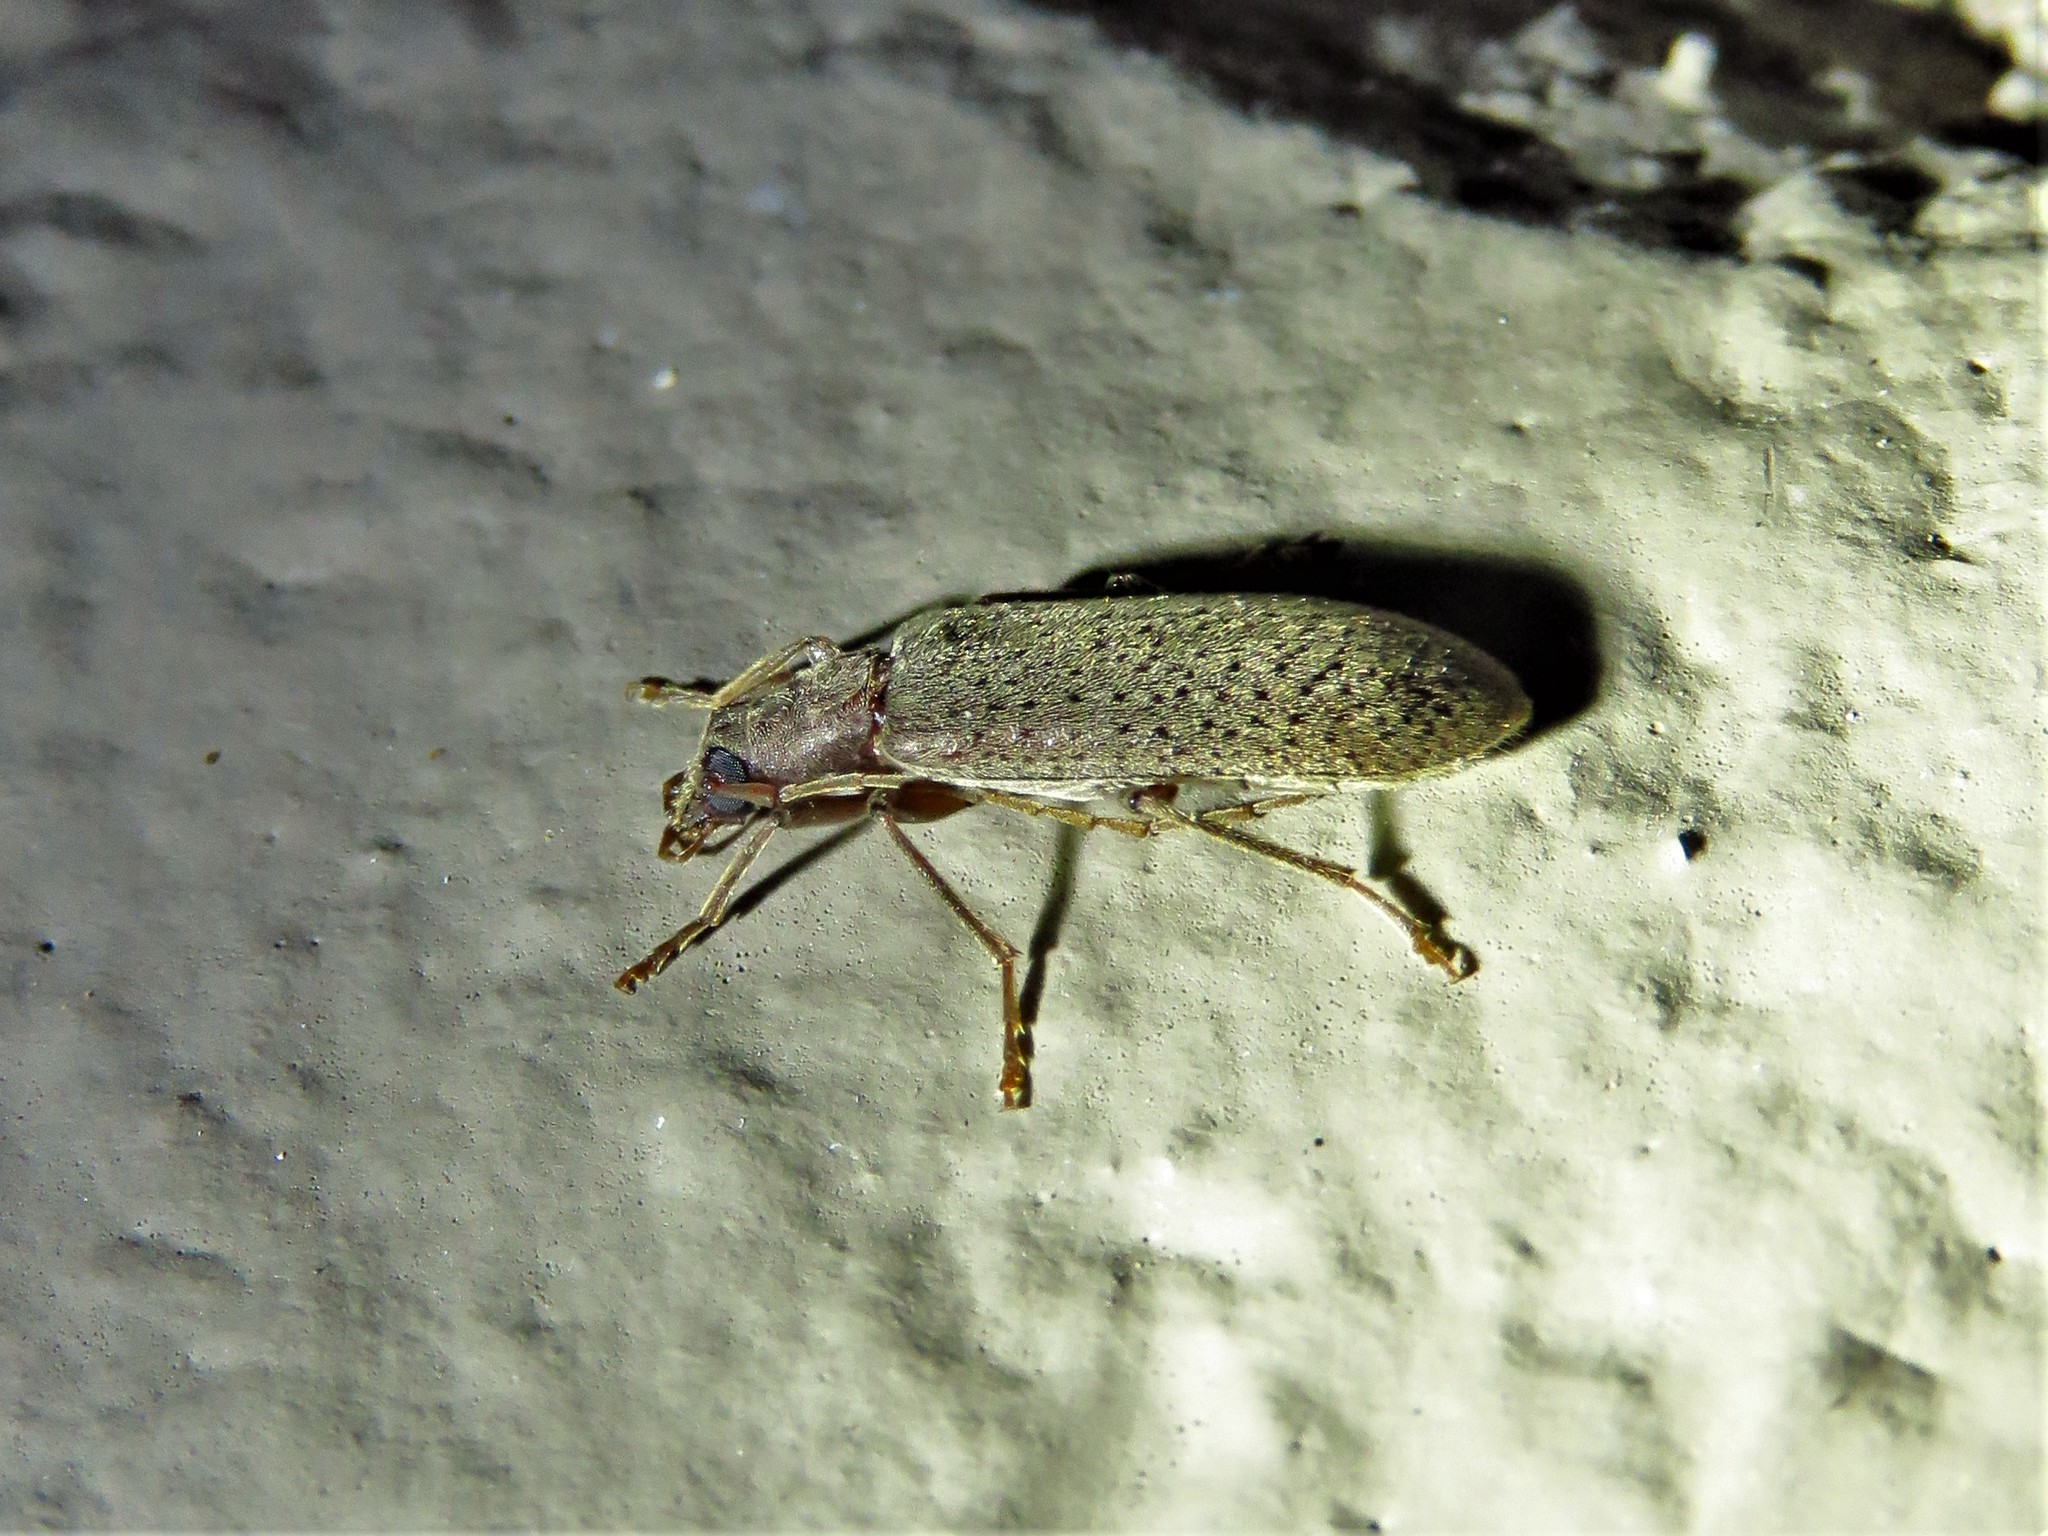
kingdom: Animalia
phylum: Arthropoda
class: Insecta
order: Coleoptera
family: Oedemeridae
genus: Sparedrus
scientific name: Sparedrus aspersus
